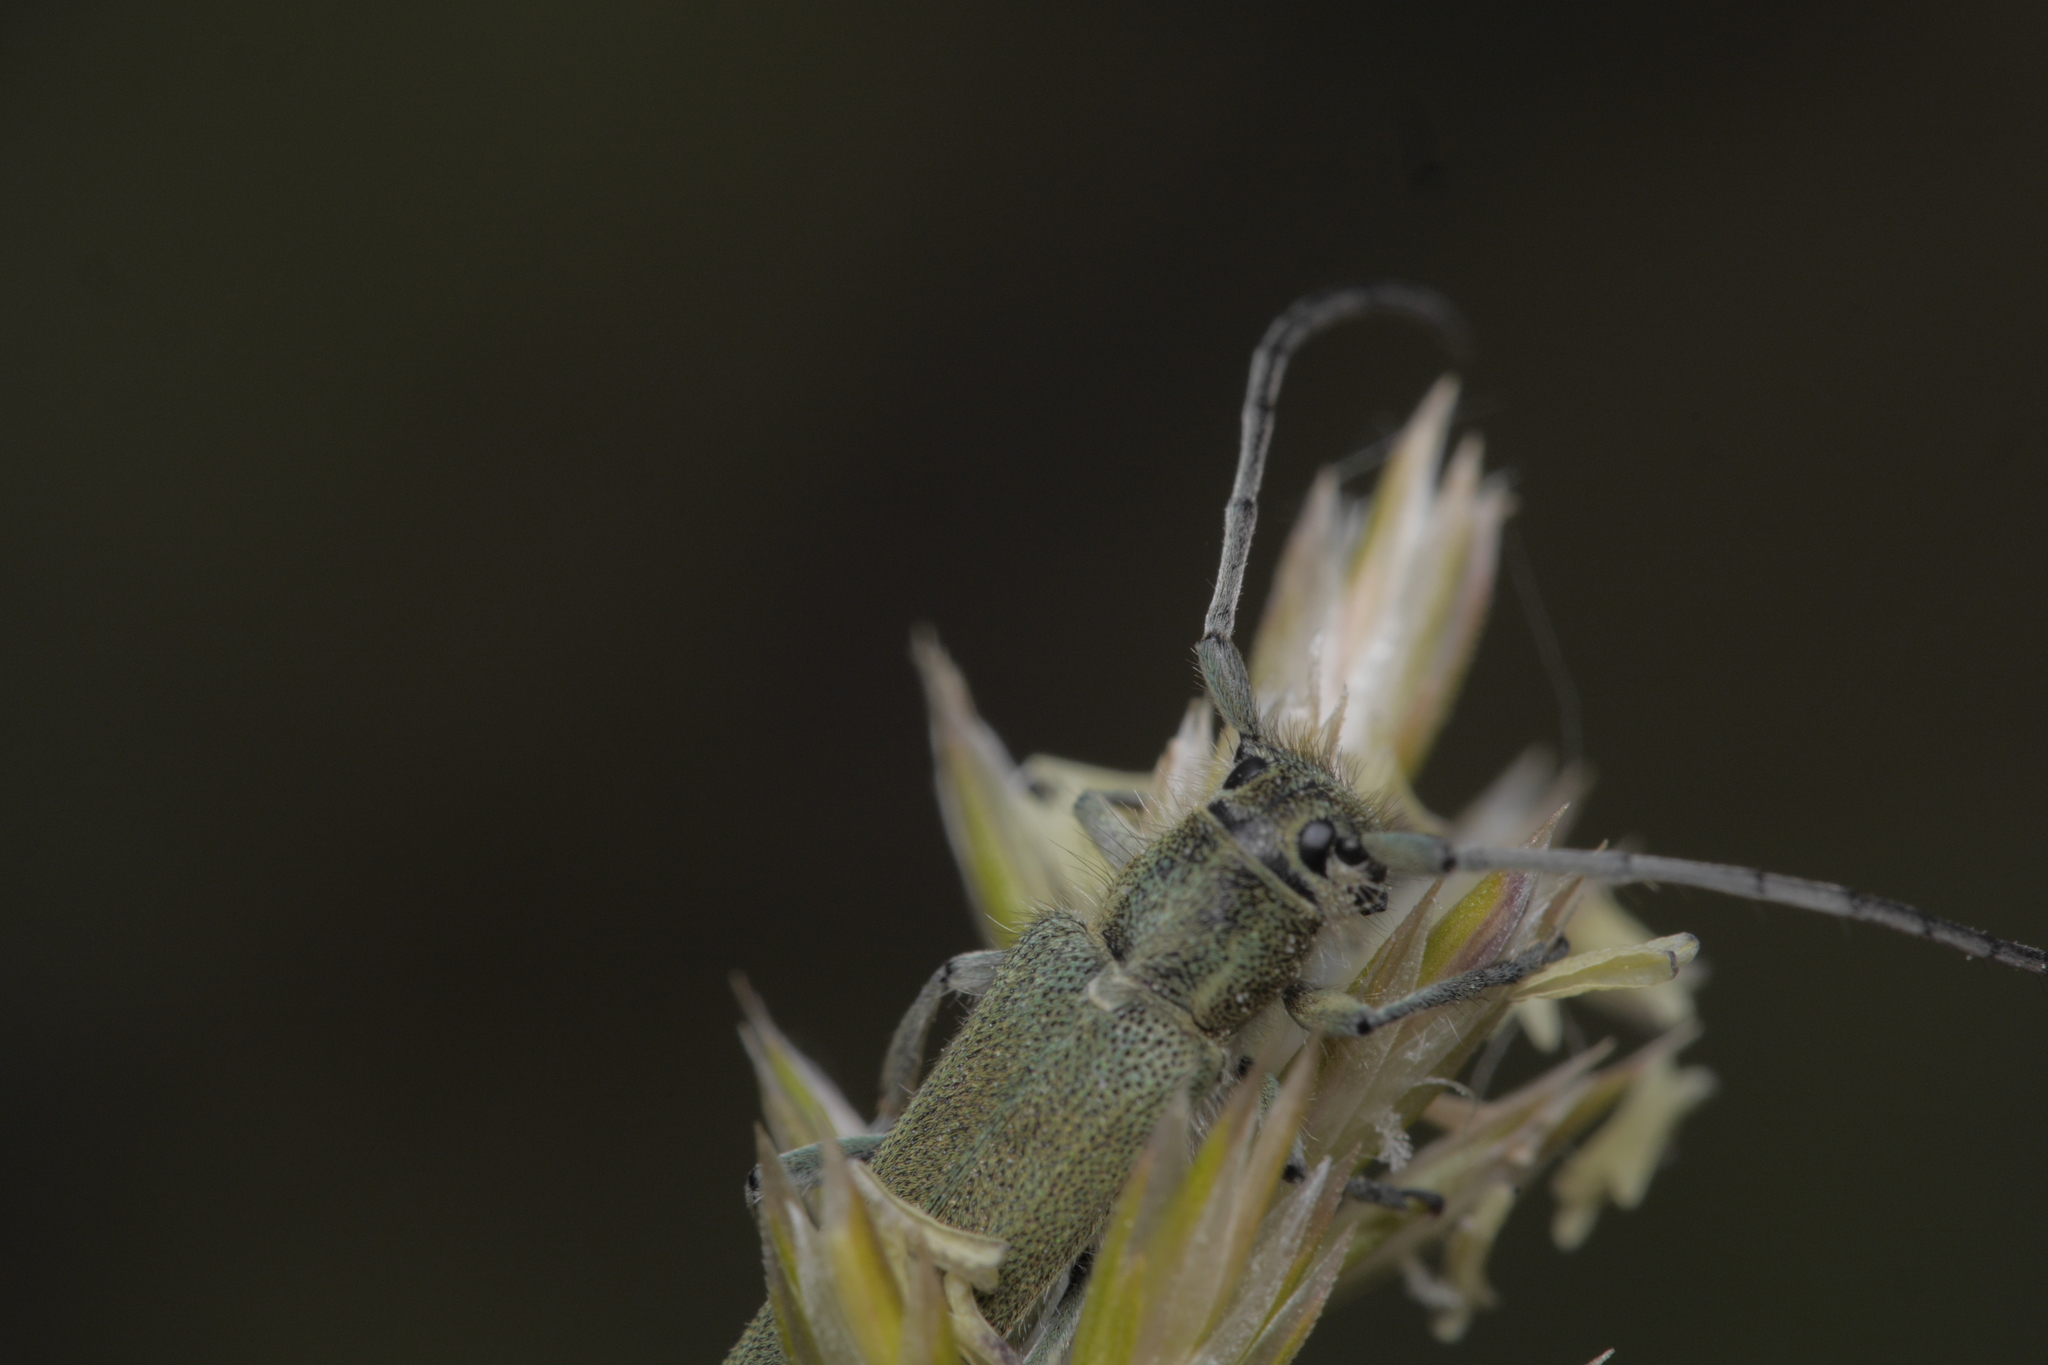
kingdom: Animalia
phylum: Arthropoda
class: Insecta
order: Coleoptera
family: Cerambycidae
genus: Phytoecia
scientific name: Phytoecia coerulescens
